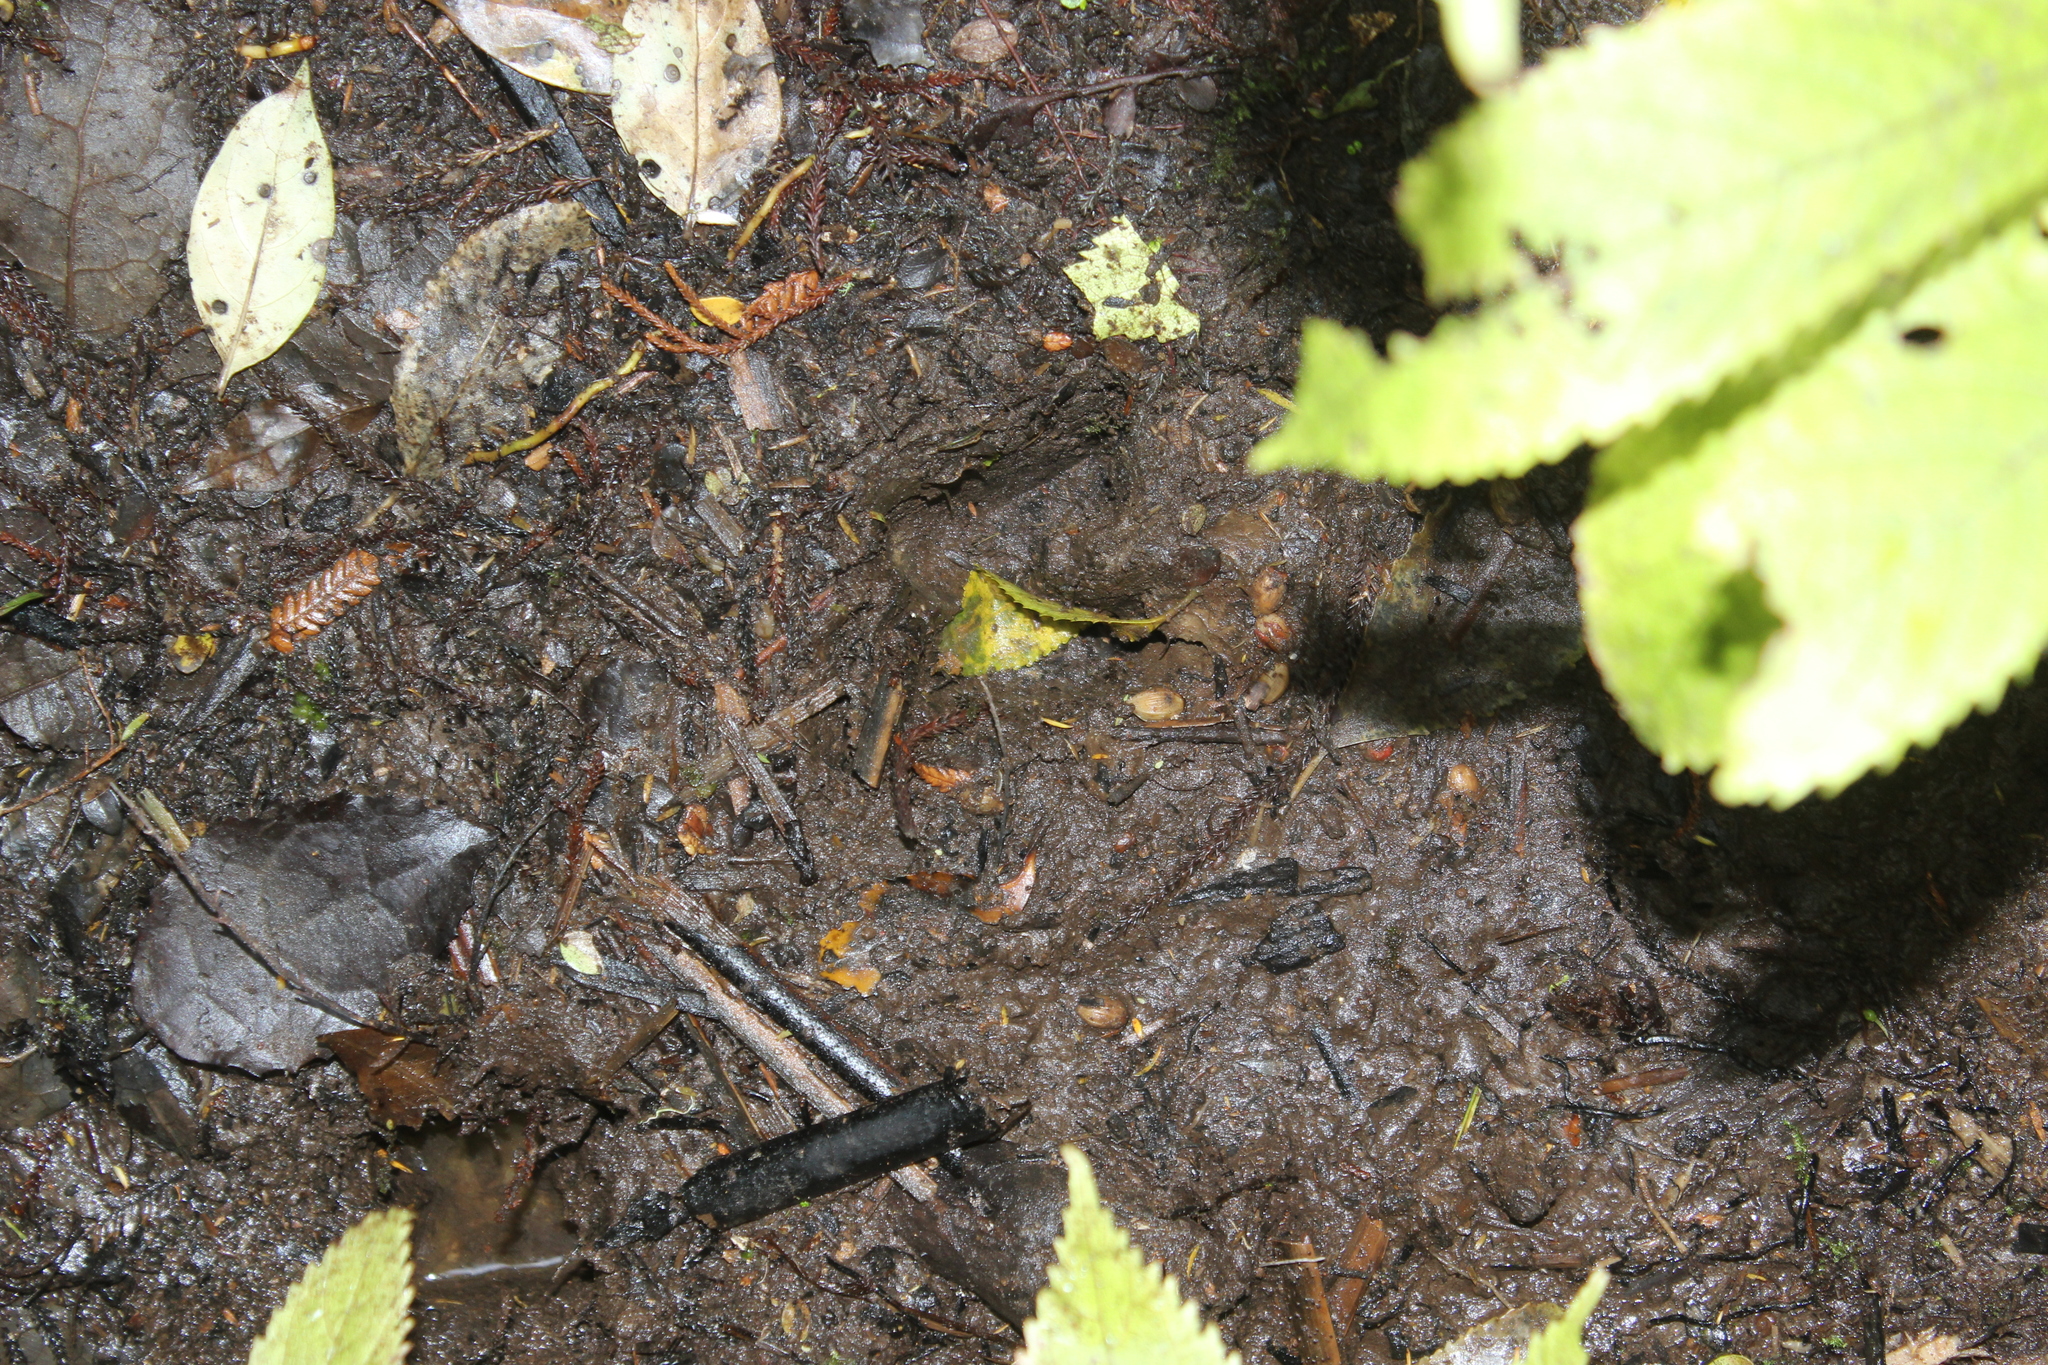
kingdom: Animalia
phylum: Chordata
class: Mammalia
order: Artiodactyla
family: Bovidae
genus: Capra
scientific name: Capra hircus
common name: Domestic goat
